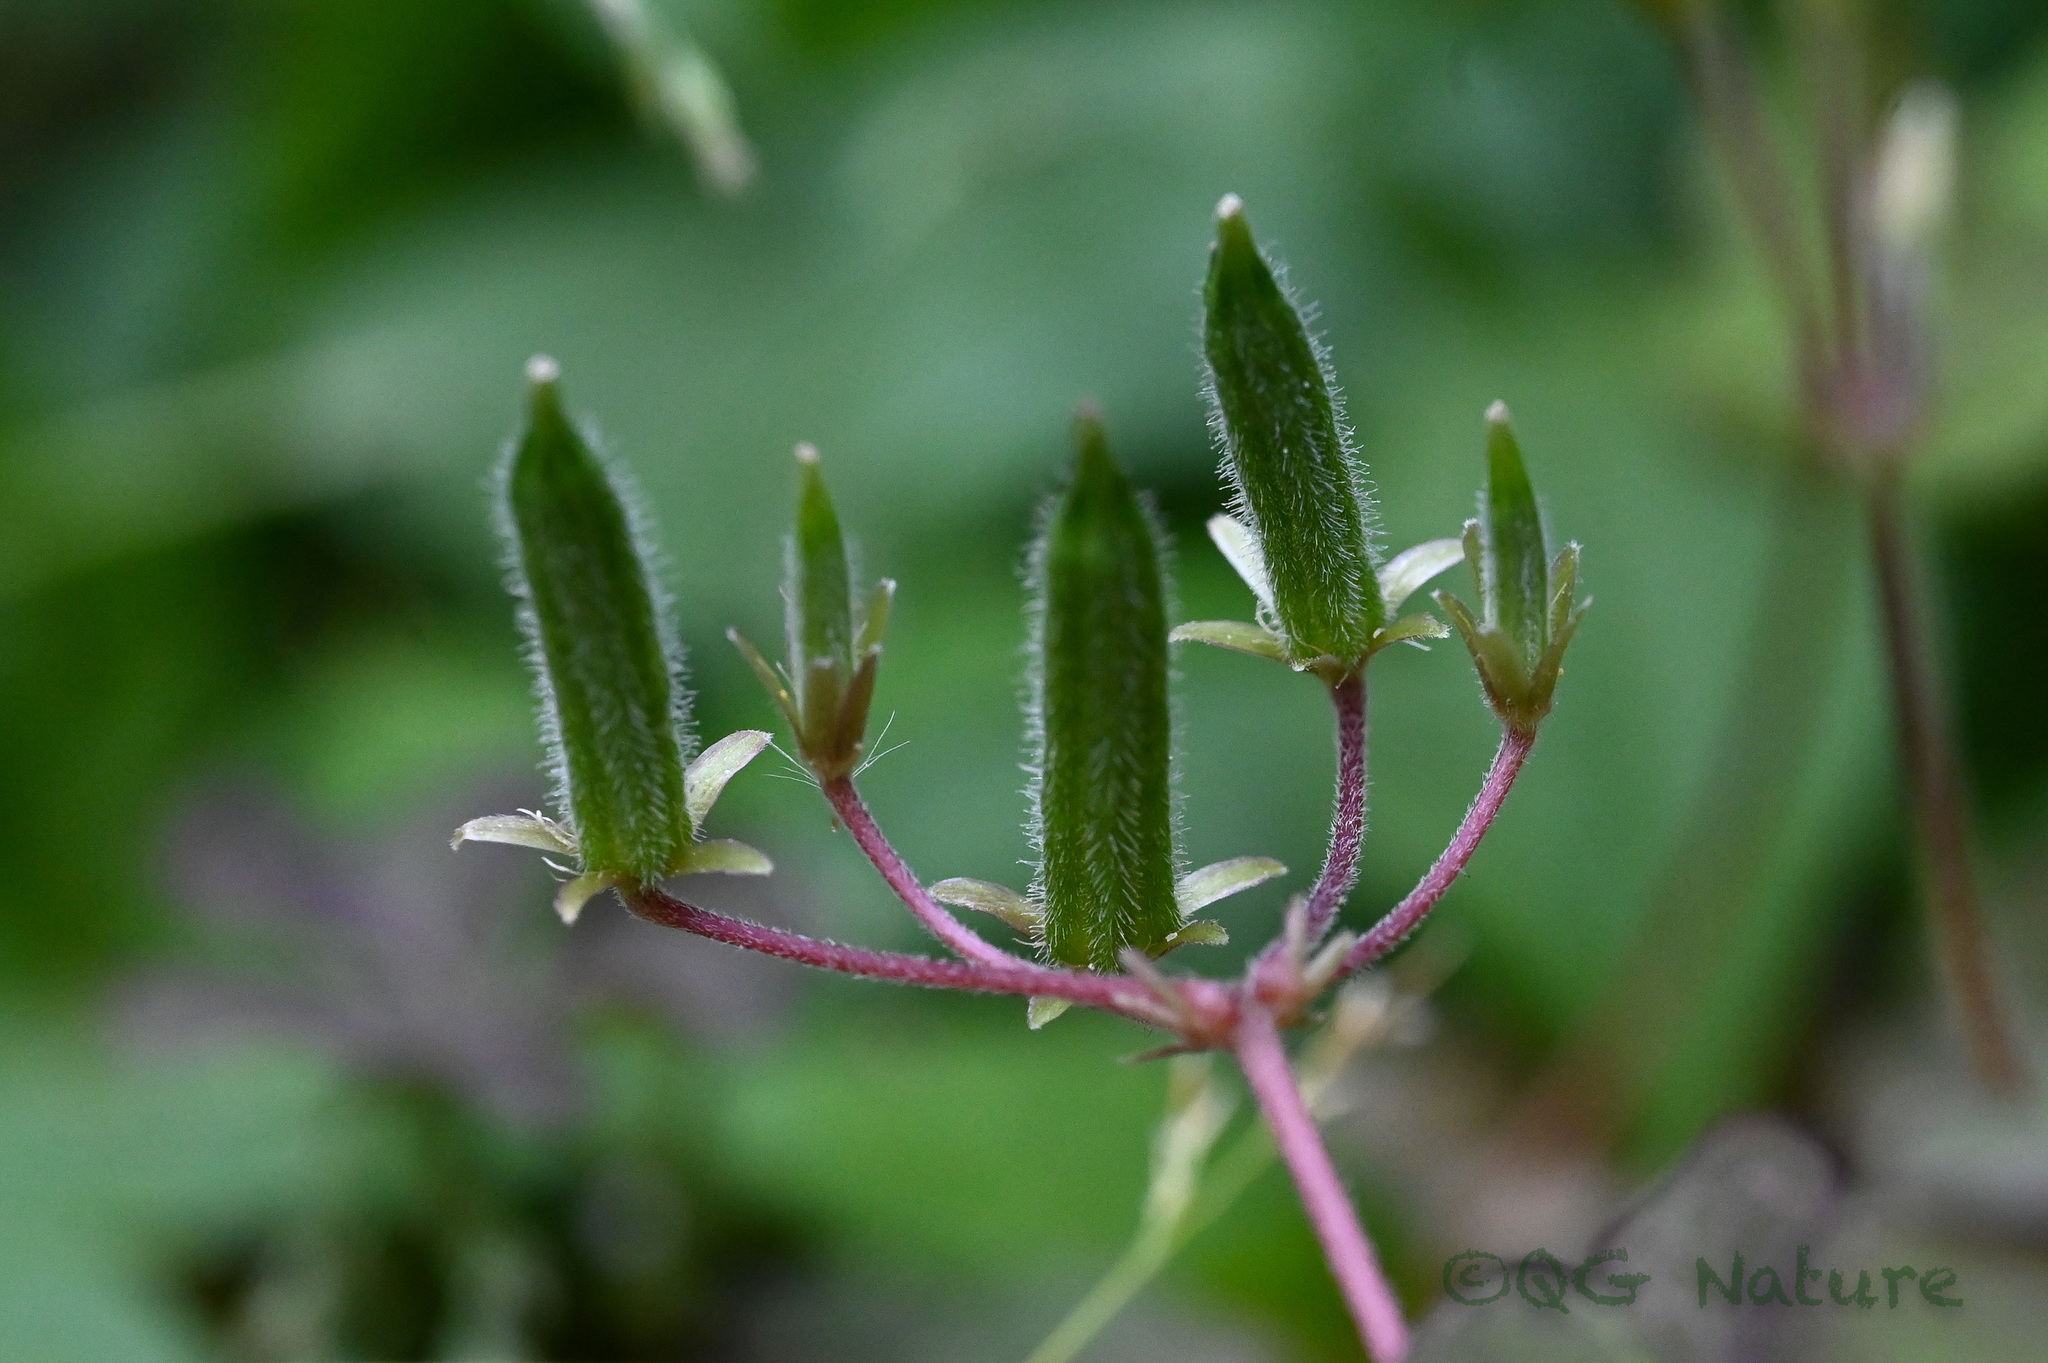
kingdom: Plantae
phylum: Tracheophyta
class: Magnoliopsida
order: Oxalidales
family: Oxalidaceae
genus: Oxalis
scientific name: Oxalis corniculata
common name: Procumbent yellow-sorrel
